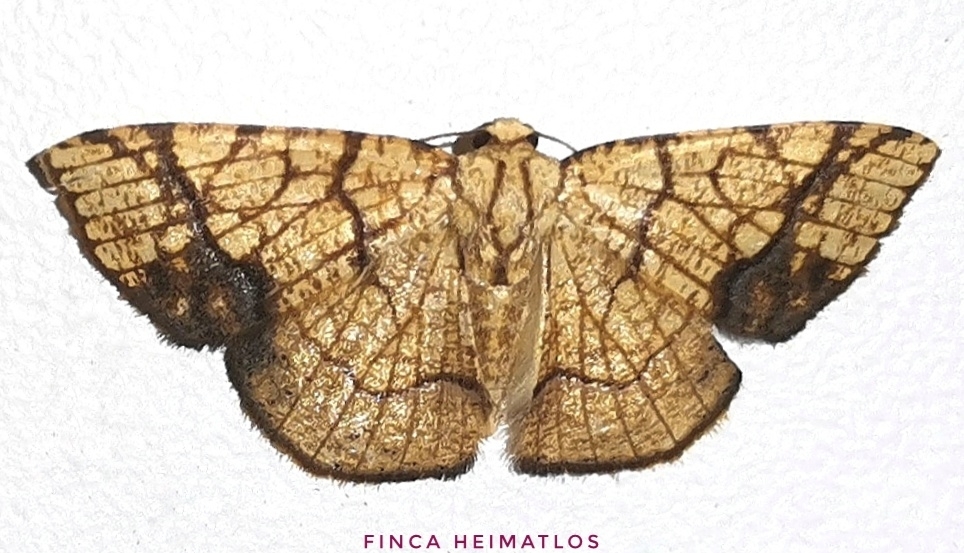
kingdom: Animalia
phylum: Arthropoda
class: Insecta
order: Lepidoptera
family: Geometridae
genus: Nematocampa
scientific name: Nematocampa straminea
